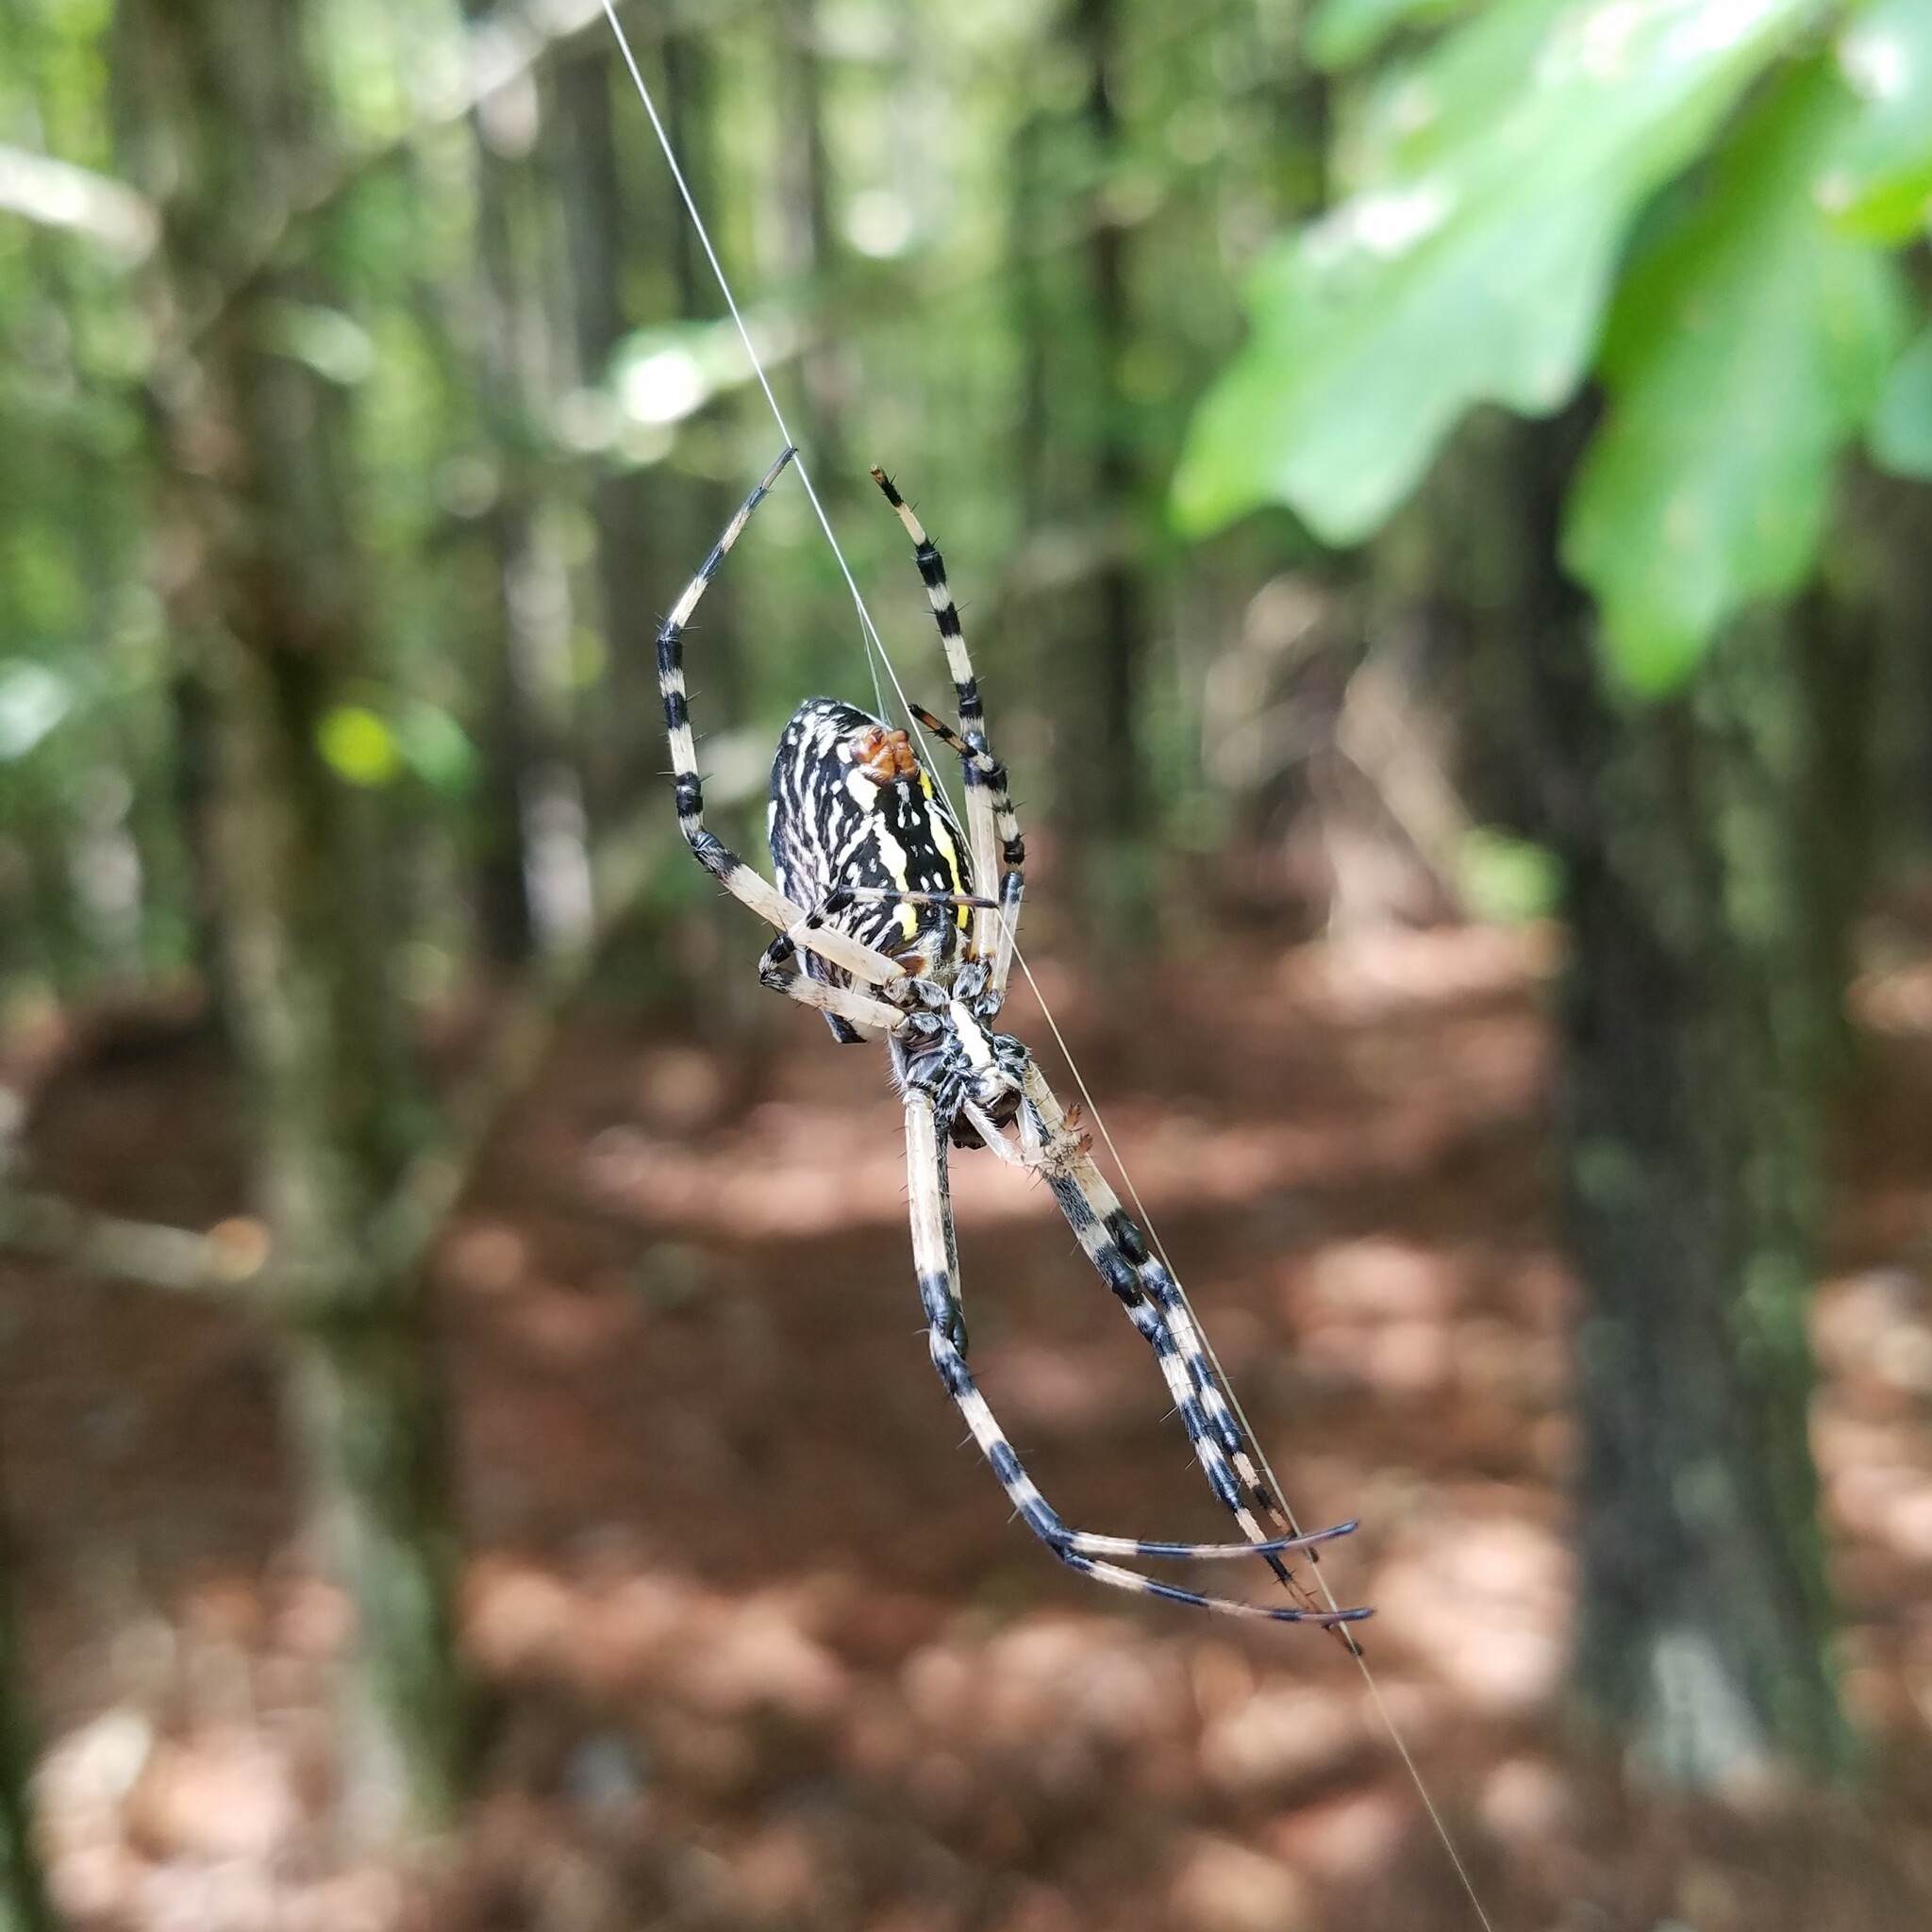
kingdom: Animalia
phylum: Arthropoda
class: Arachnida
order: Araneae
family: Araneidae
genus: Argiope
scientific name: Argiope aurantia
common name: Orb weavers
